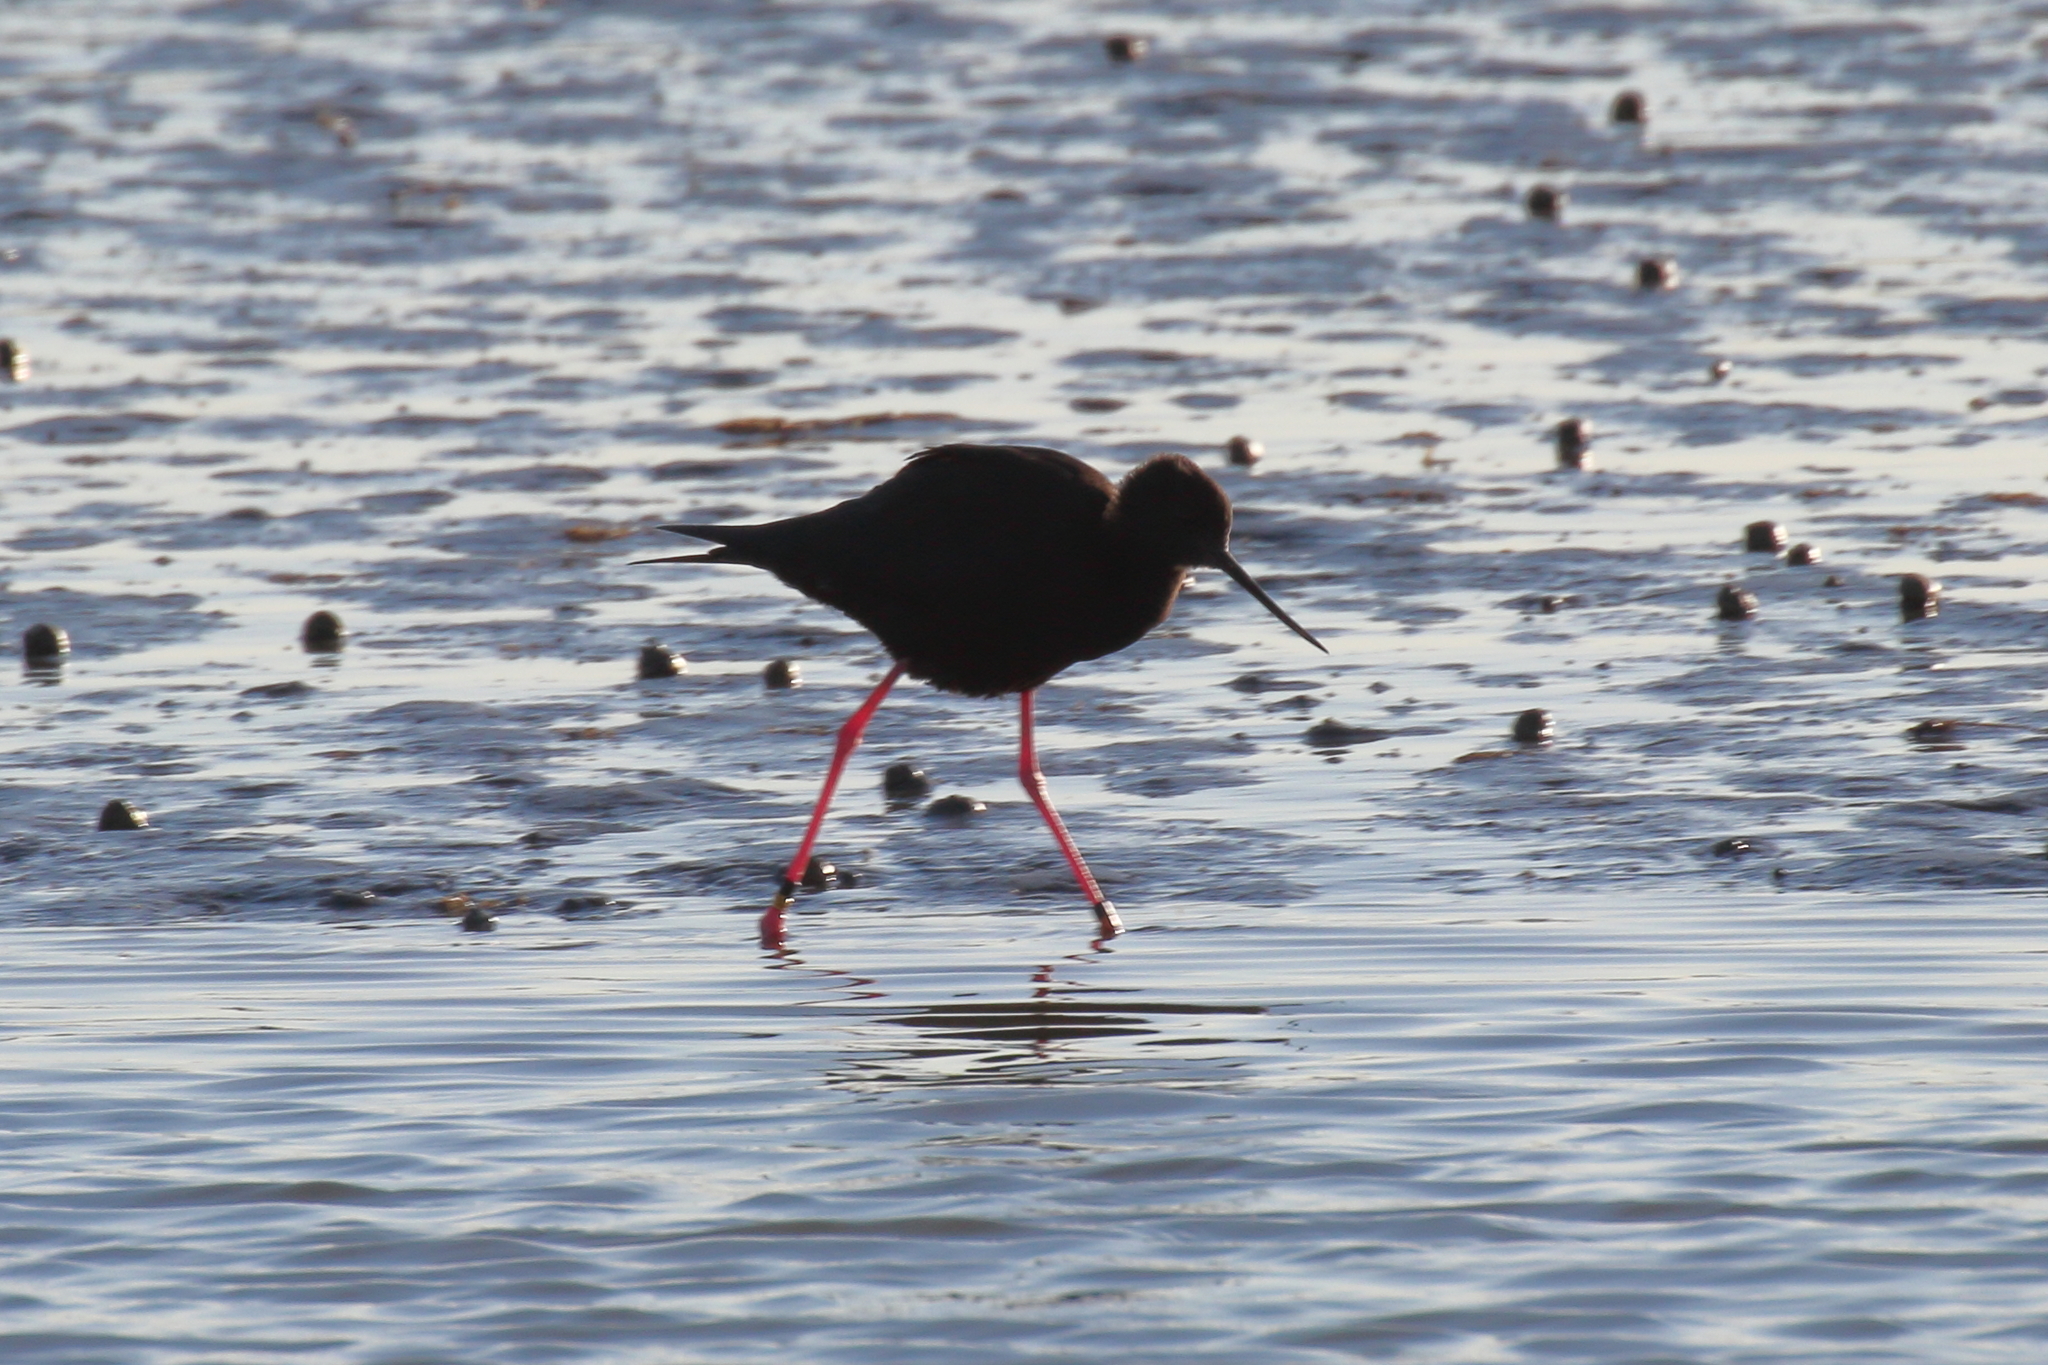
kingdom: Animalia
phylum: Chordata
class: Aves
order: Charadriiformes
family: Recurvirostridae
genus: Himantopus
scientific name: Himantopus novaezelandiae
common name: Black stilt
